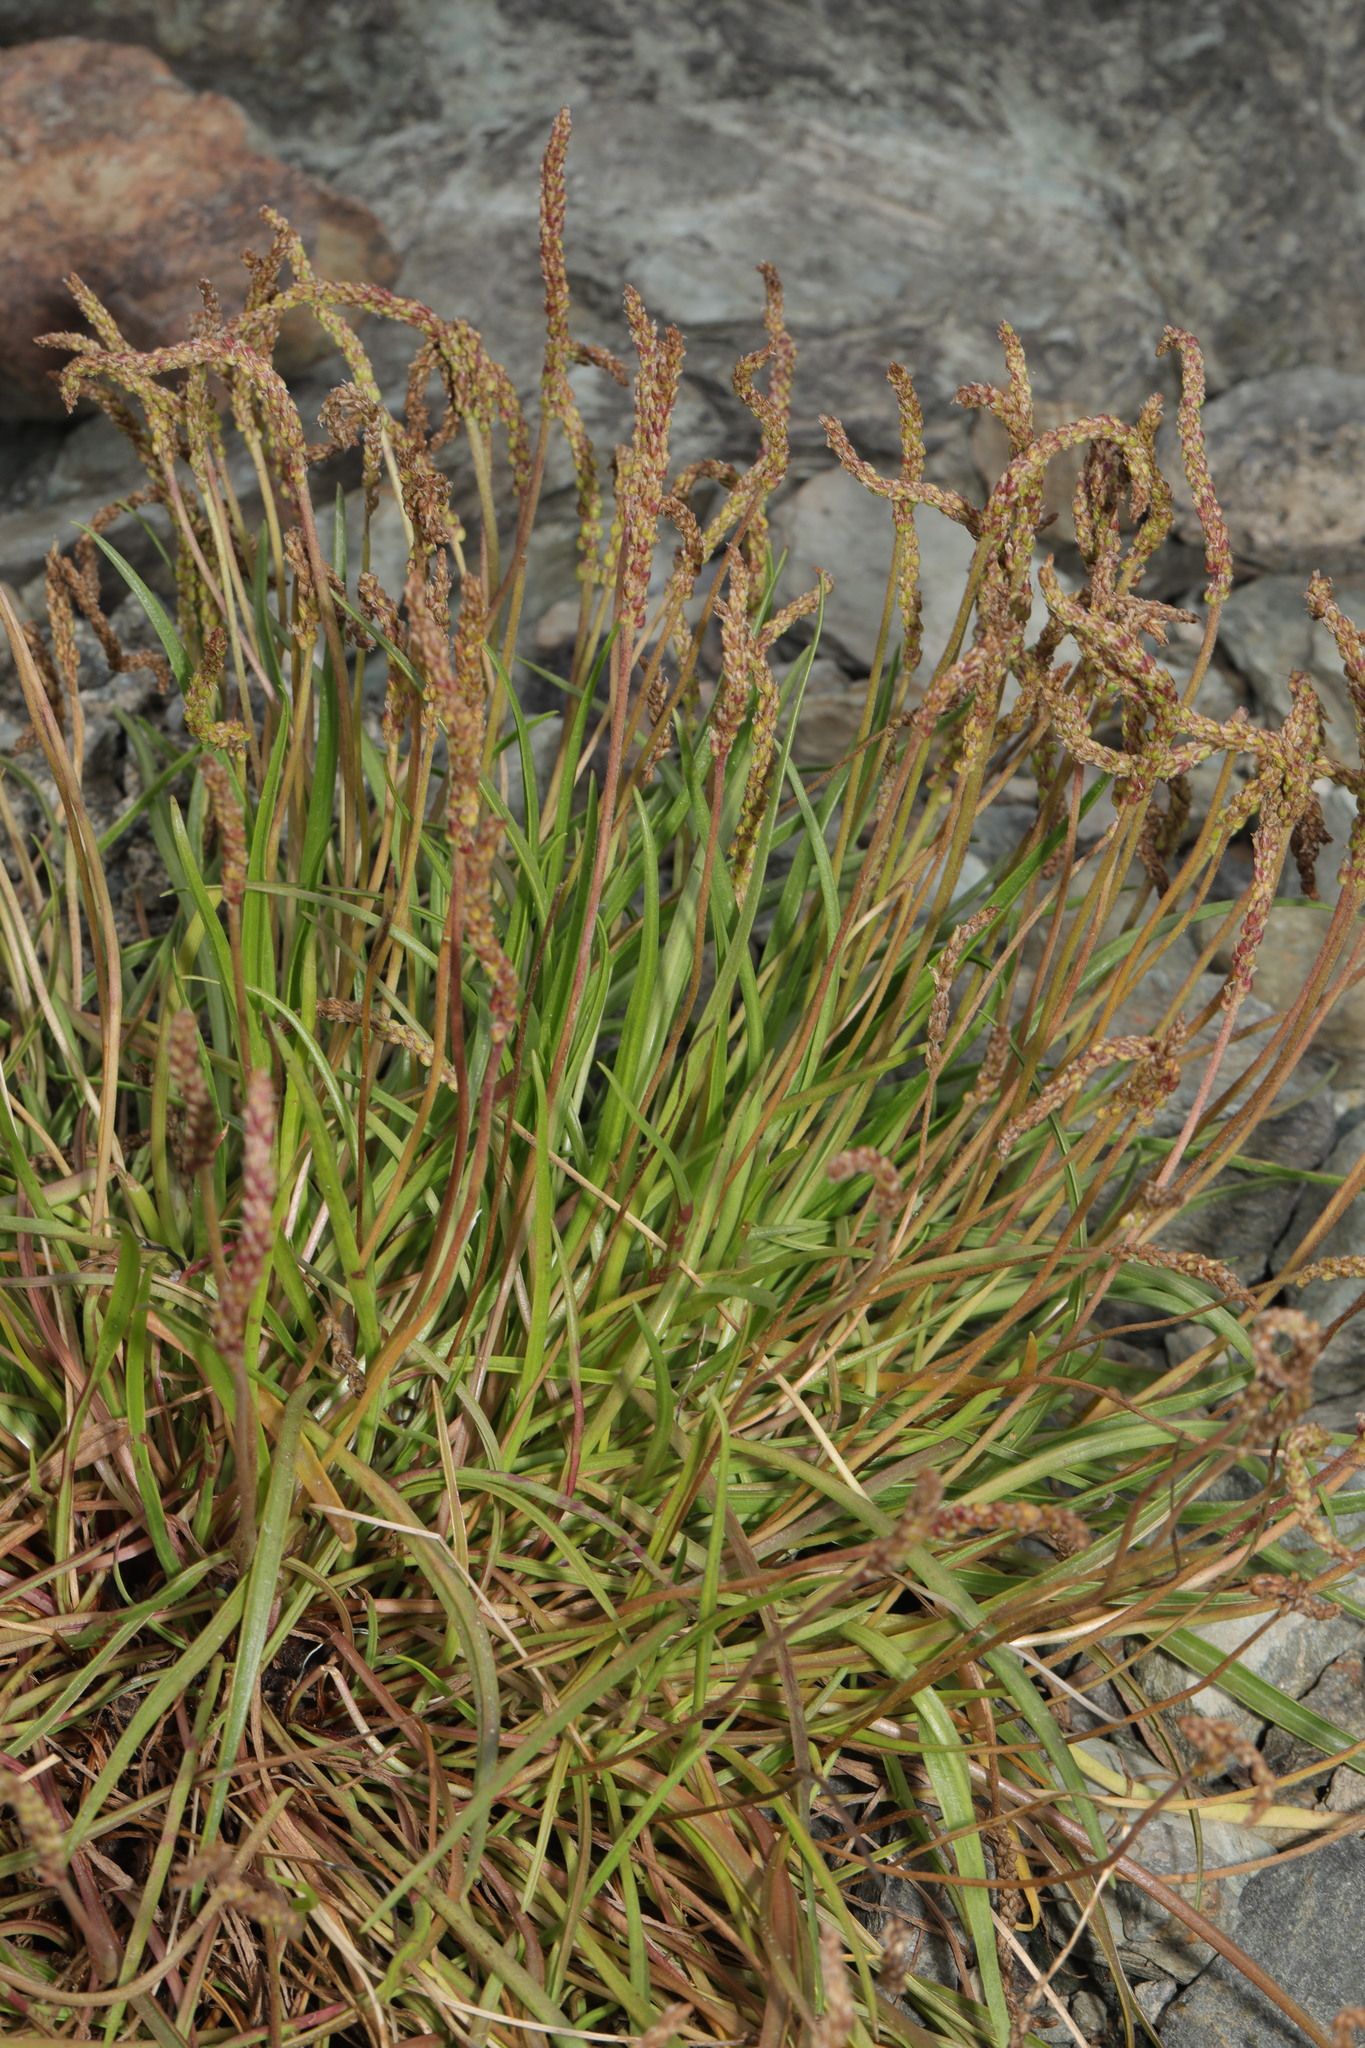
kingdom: Plantae
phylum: Tracheophyta
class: Magnoliopsida
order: Lamiales
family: Plantaginaceae
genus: Plantago
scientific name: Plantago maritima
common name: Sea plantain
